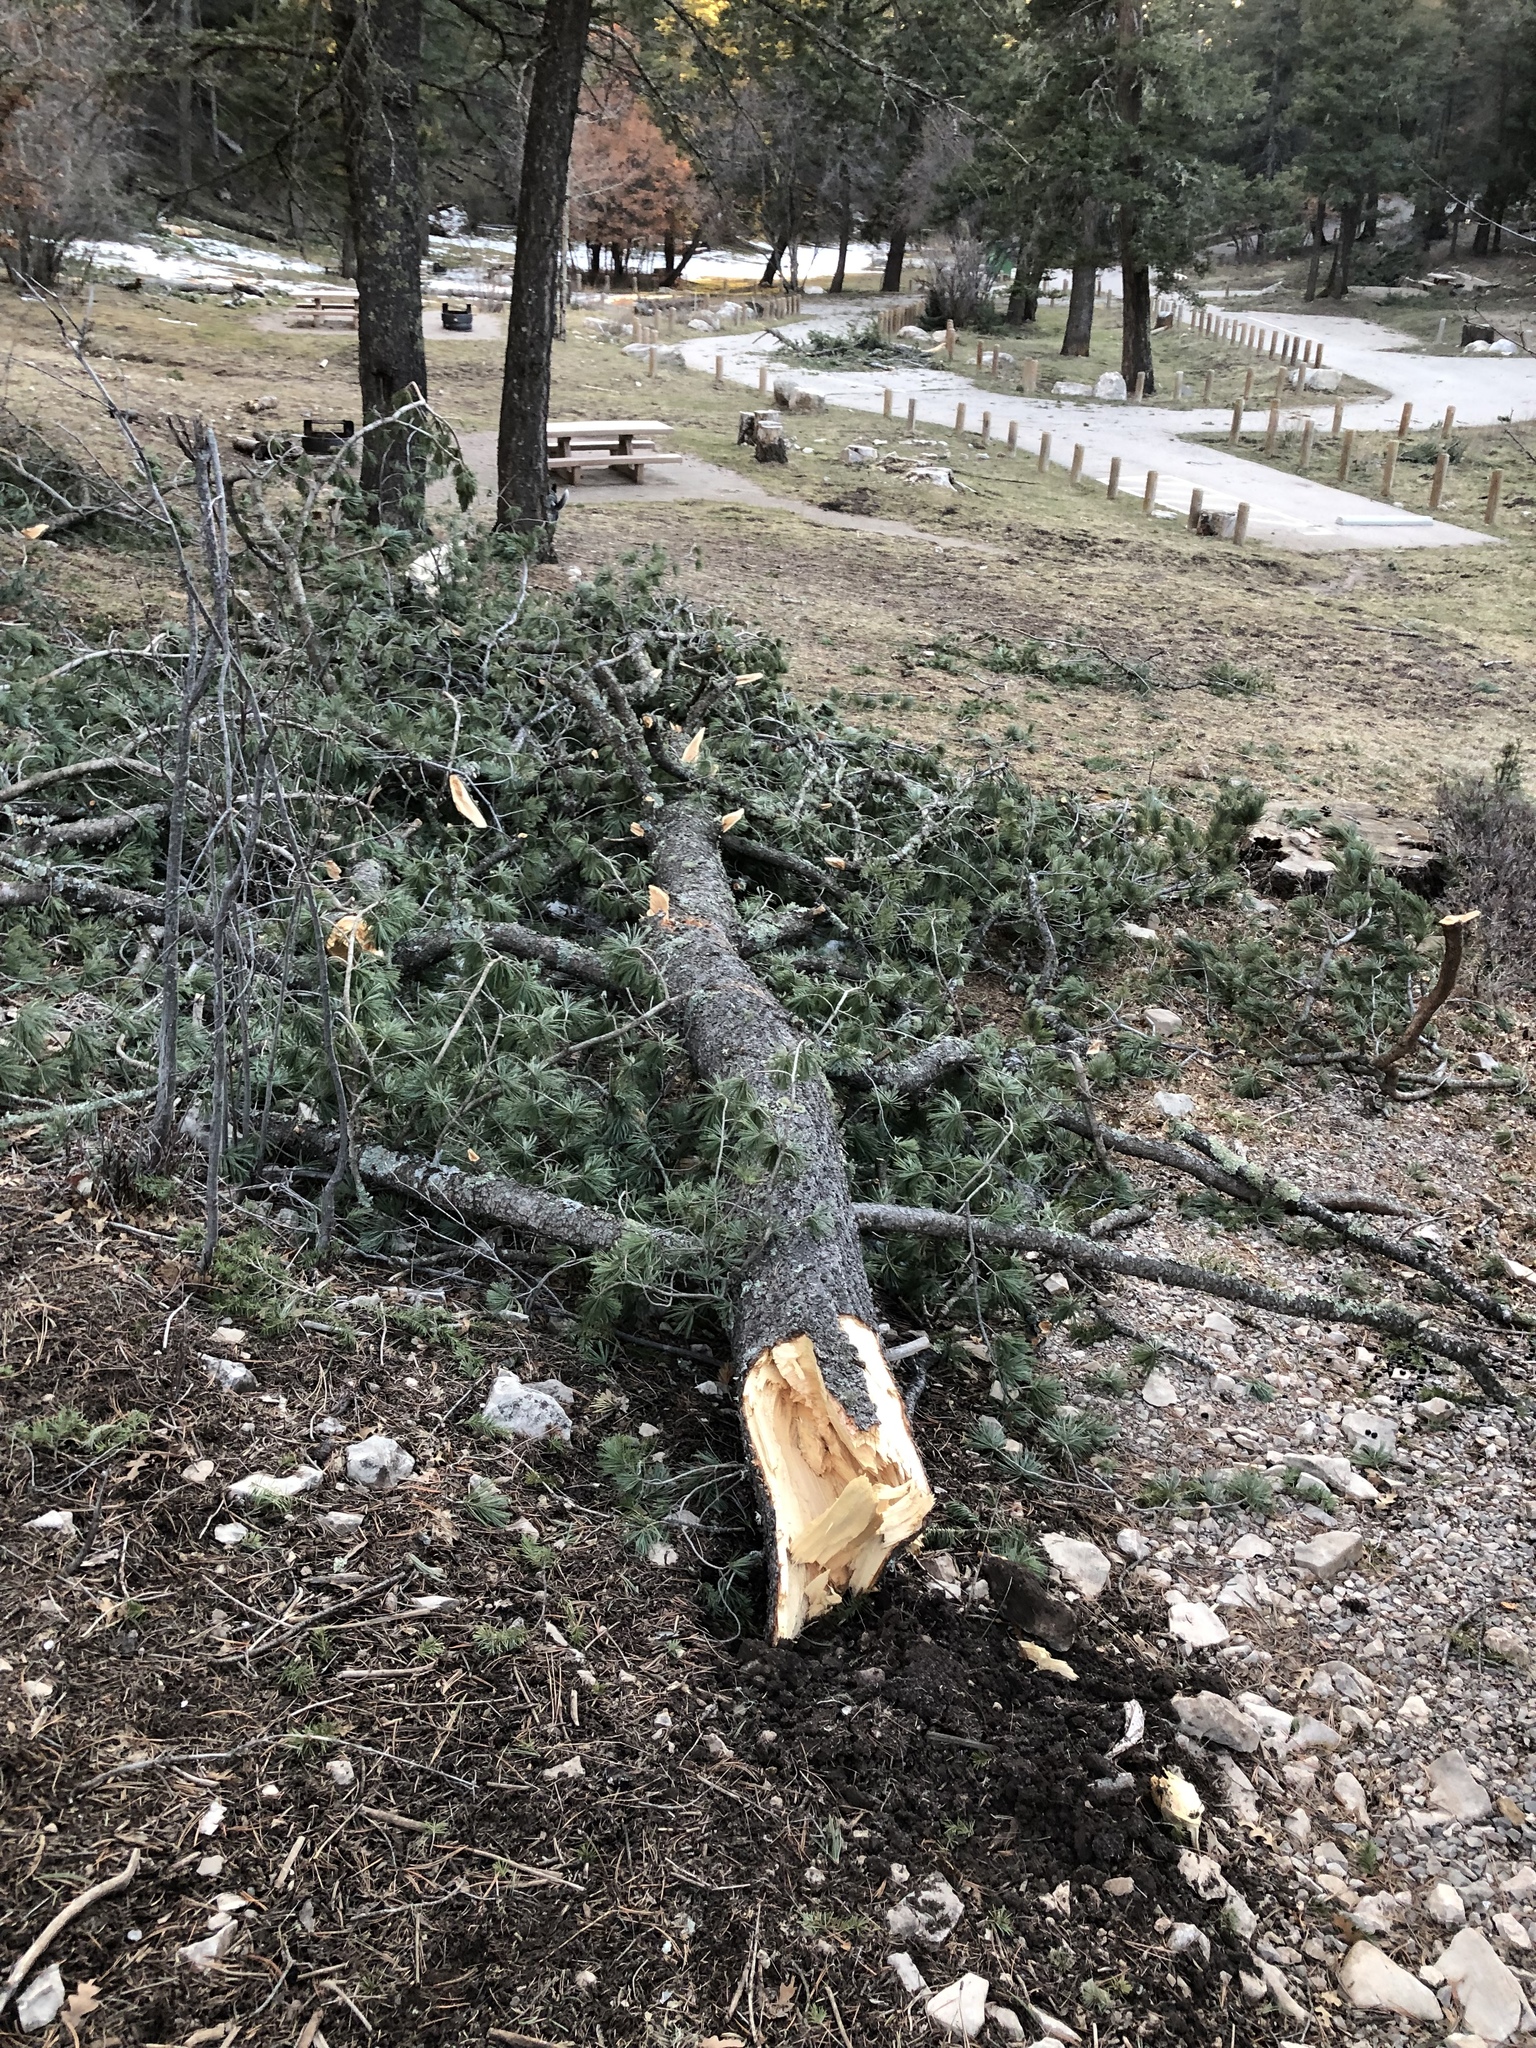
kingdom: Plantae
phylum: Tracheophyta
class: Pinopsida
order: Pinales
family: Pinaceae
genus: Pinus
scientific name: Pinus strobiformis
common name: Southwestern white pine
